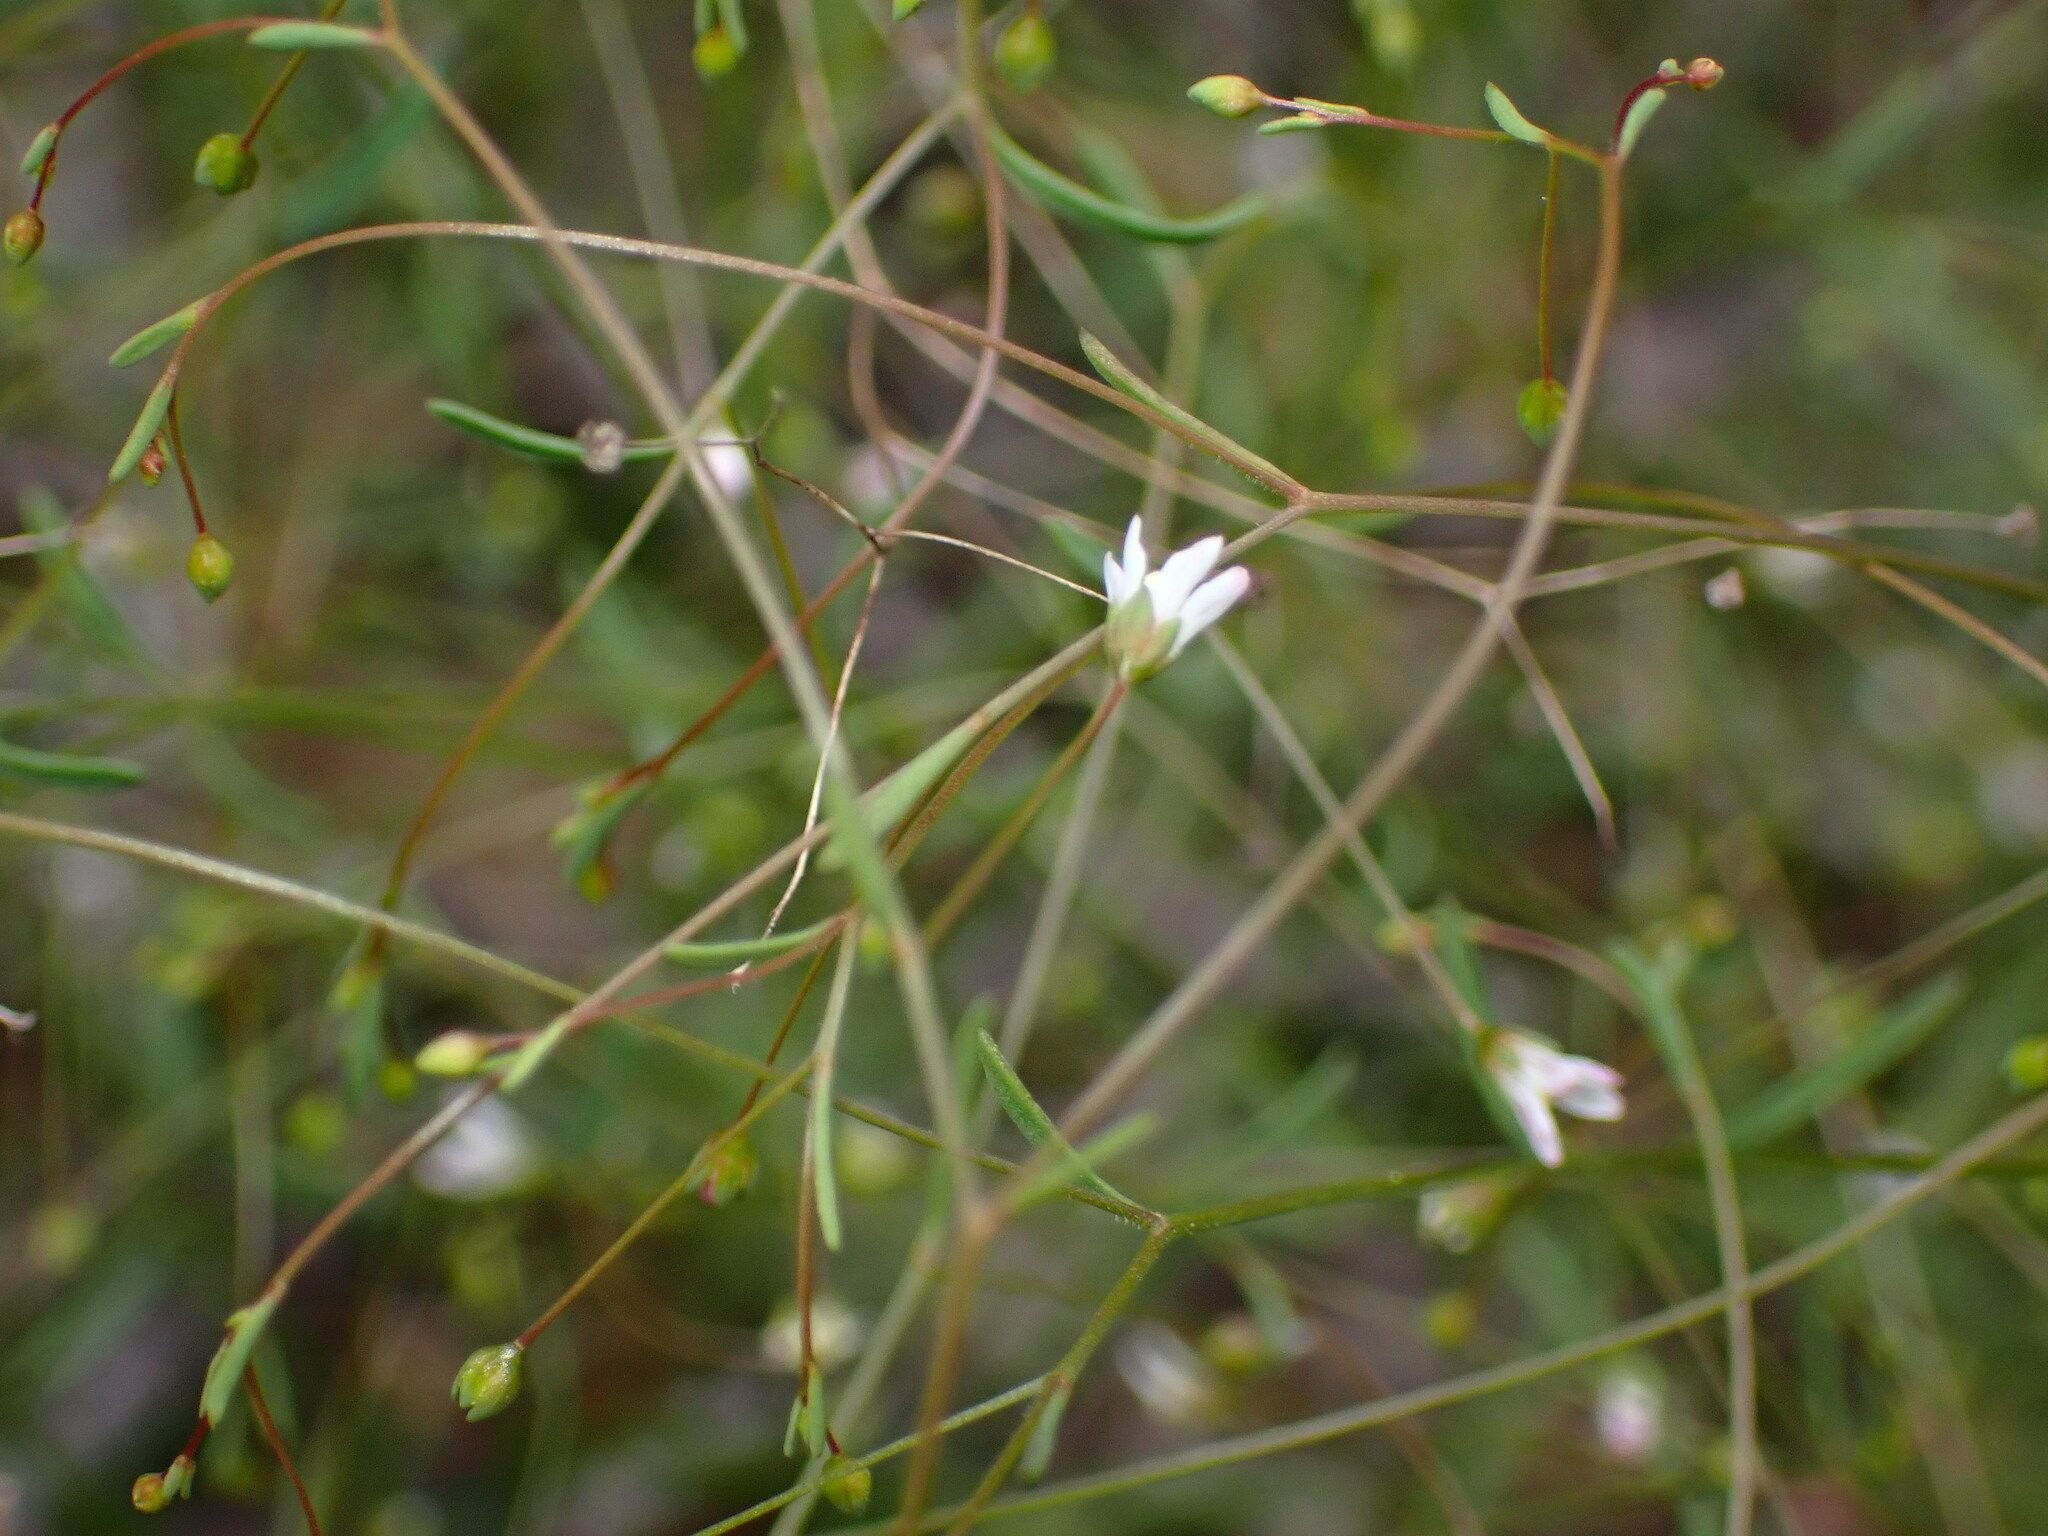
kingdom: Plantae
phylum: Tracheophyta
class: Magnoliopsida
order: Malpighiales
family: Linaceae
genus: Hesperolinon
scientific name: Hesperolinon micranthum
